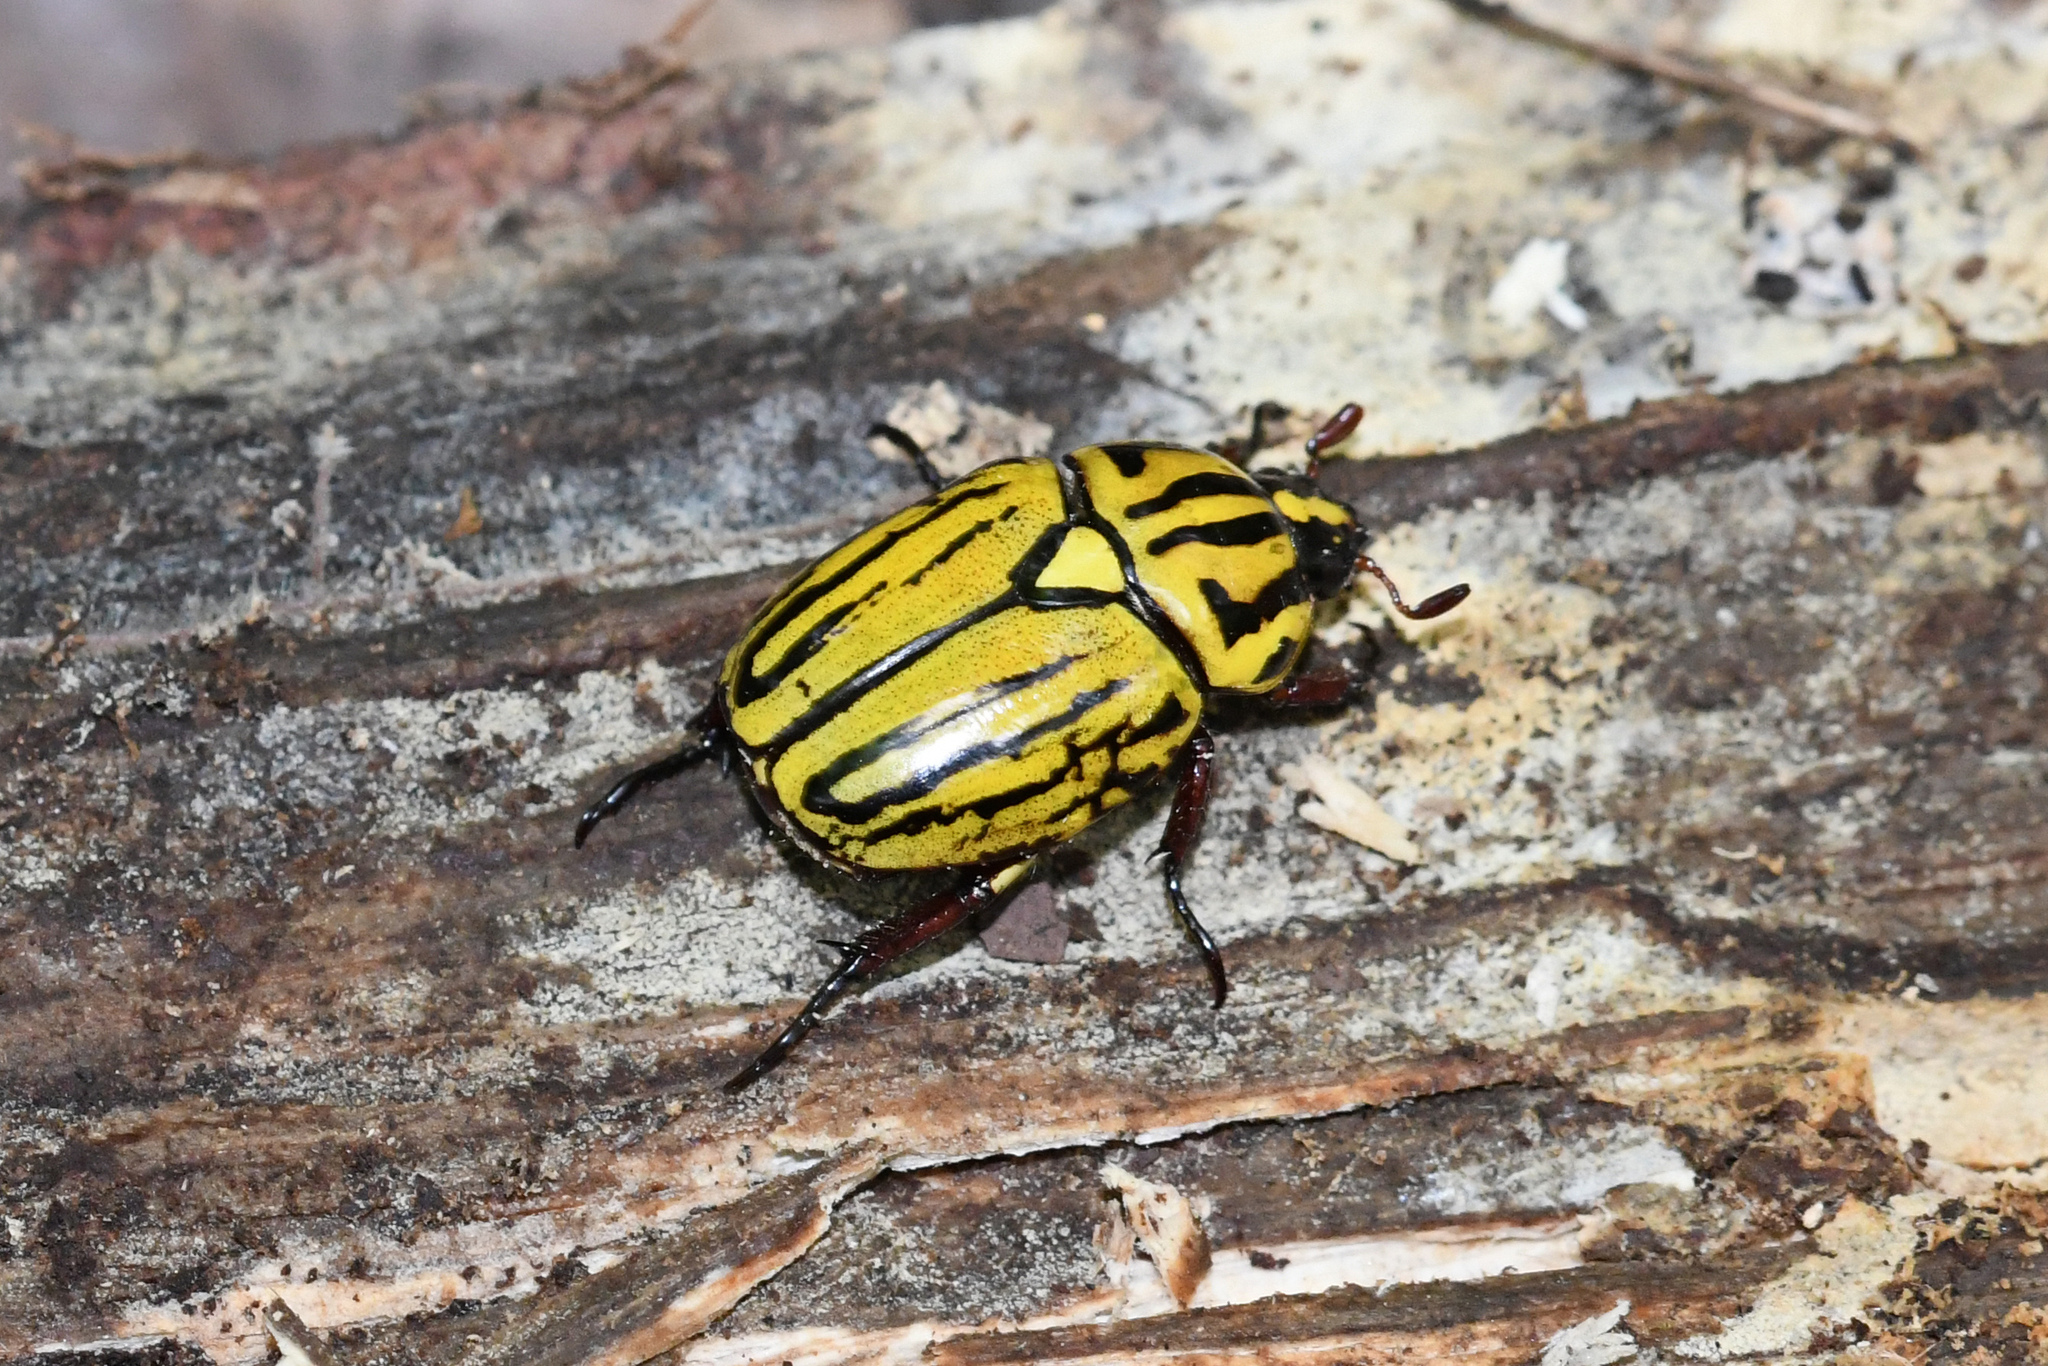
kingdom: Animalia
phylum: Arthropoda
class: Insecta
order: Coleoptera
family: Scarabaeidae
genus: Rutela
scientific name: Rutela dorcyi
